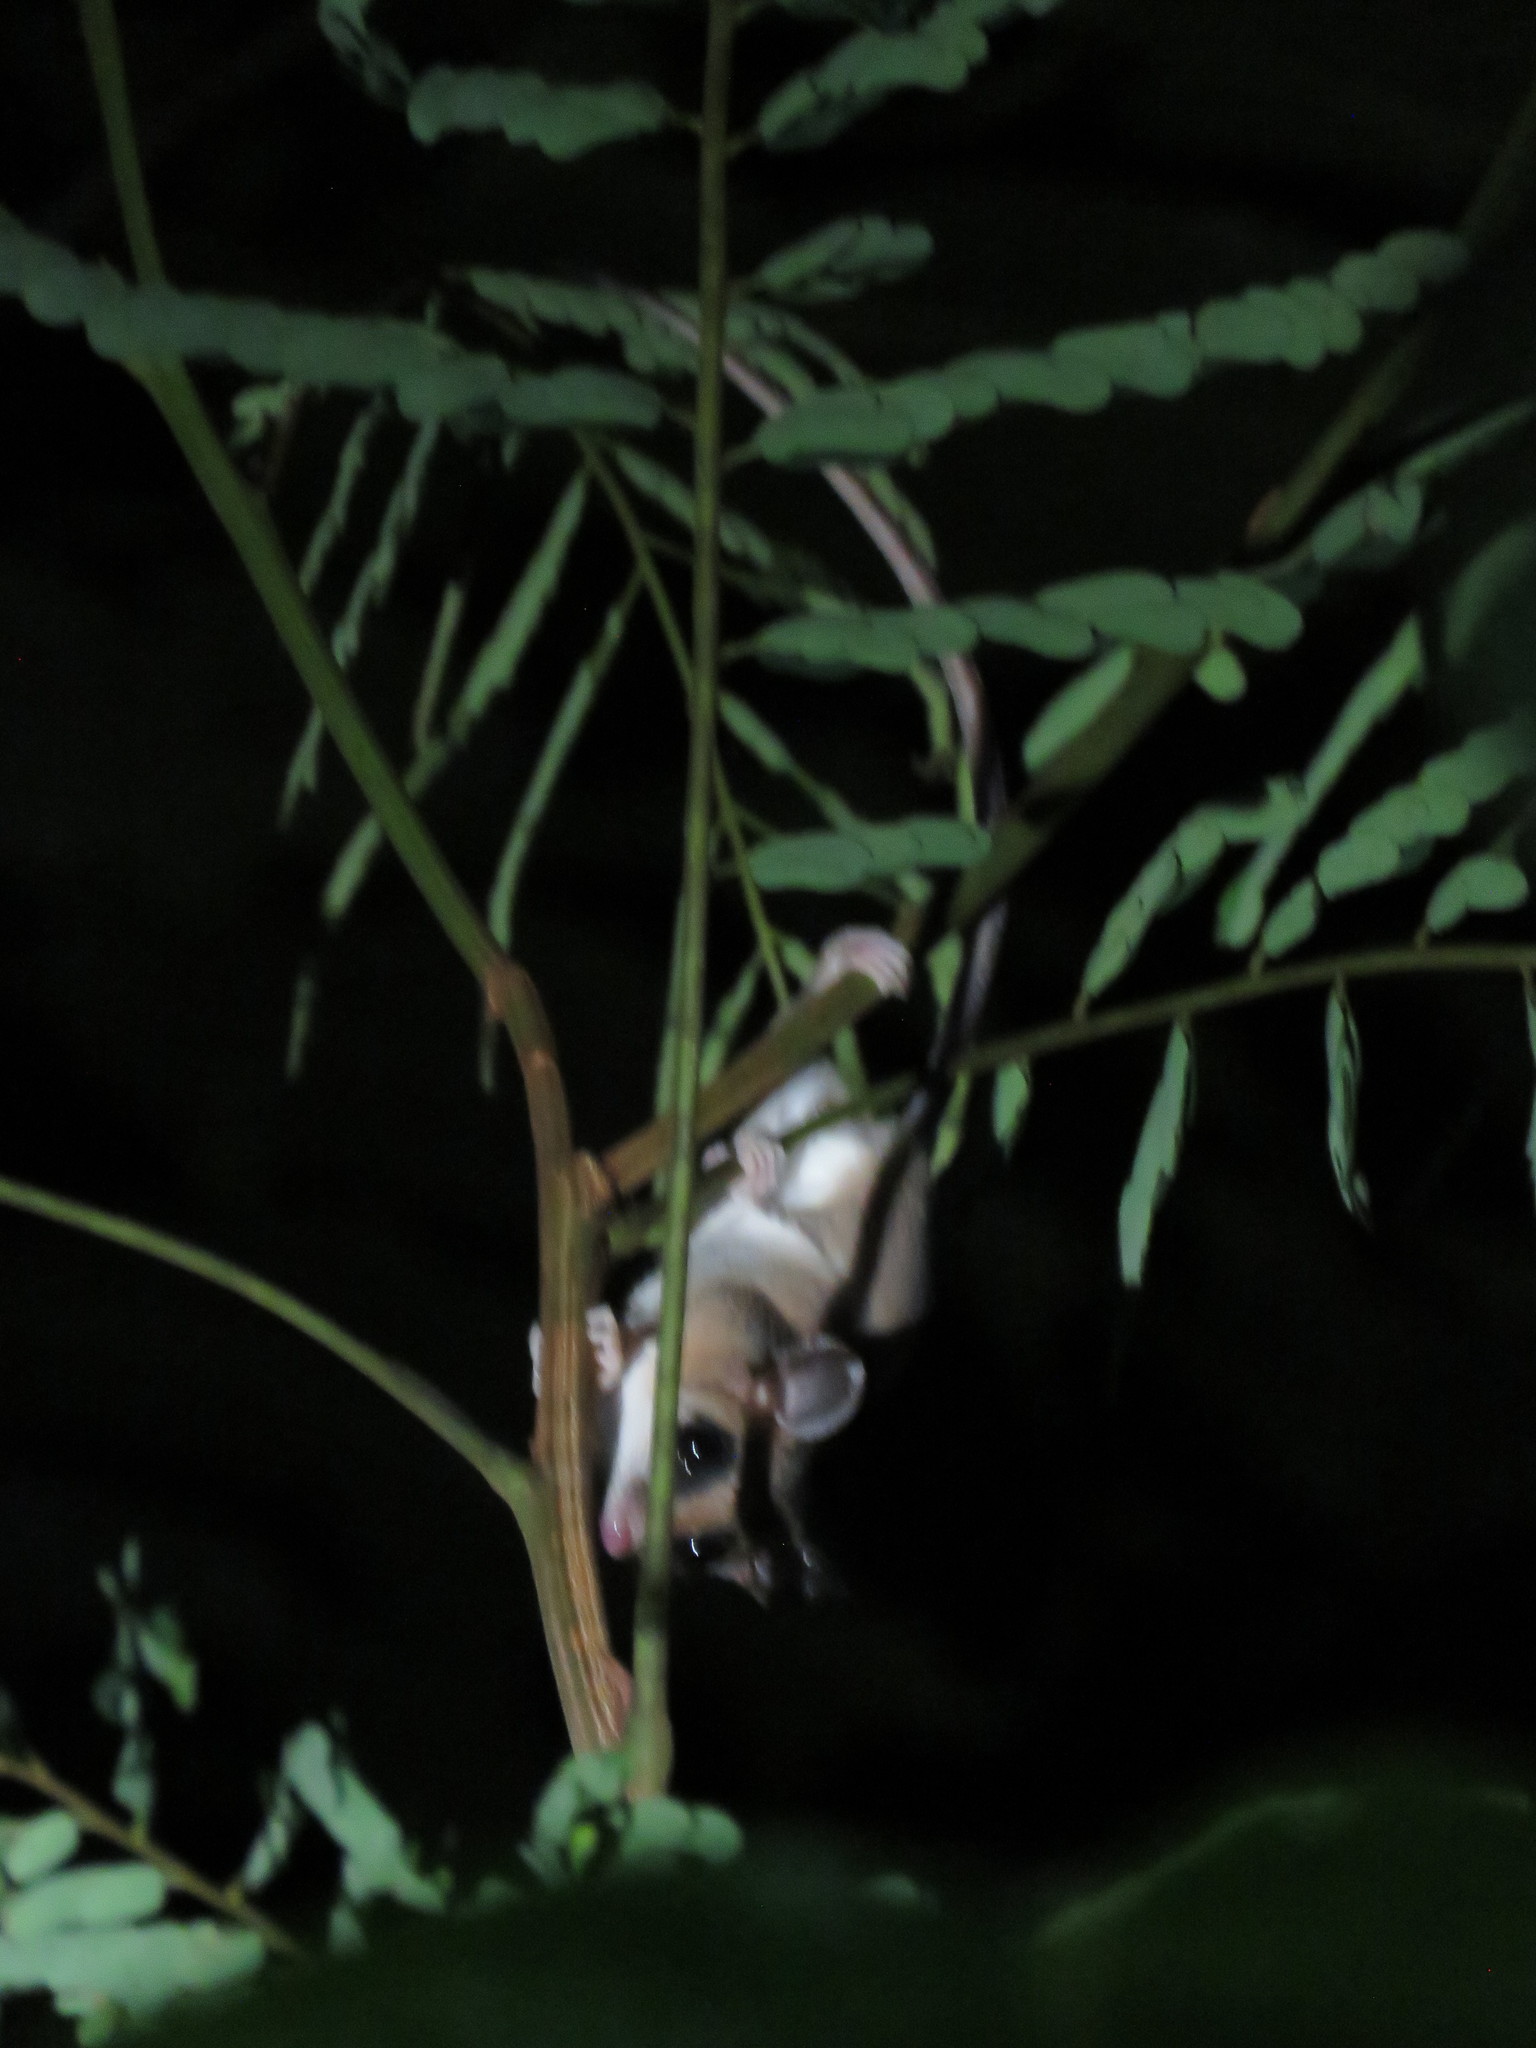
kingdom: Animalia
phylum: Chordata
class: Mammalia
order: Didelphimorphia
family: Didelphidae
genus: Marmosa
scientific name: Marmosa murina
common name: Linnaeus's mouse opossum
